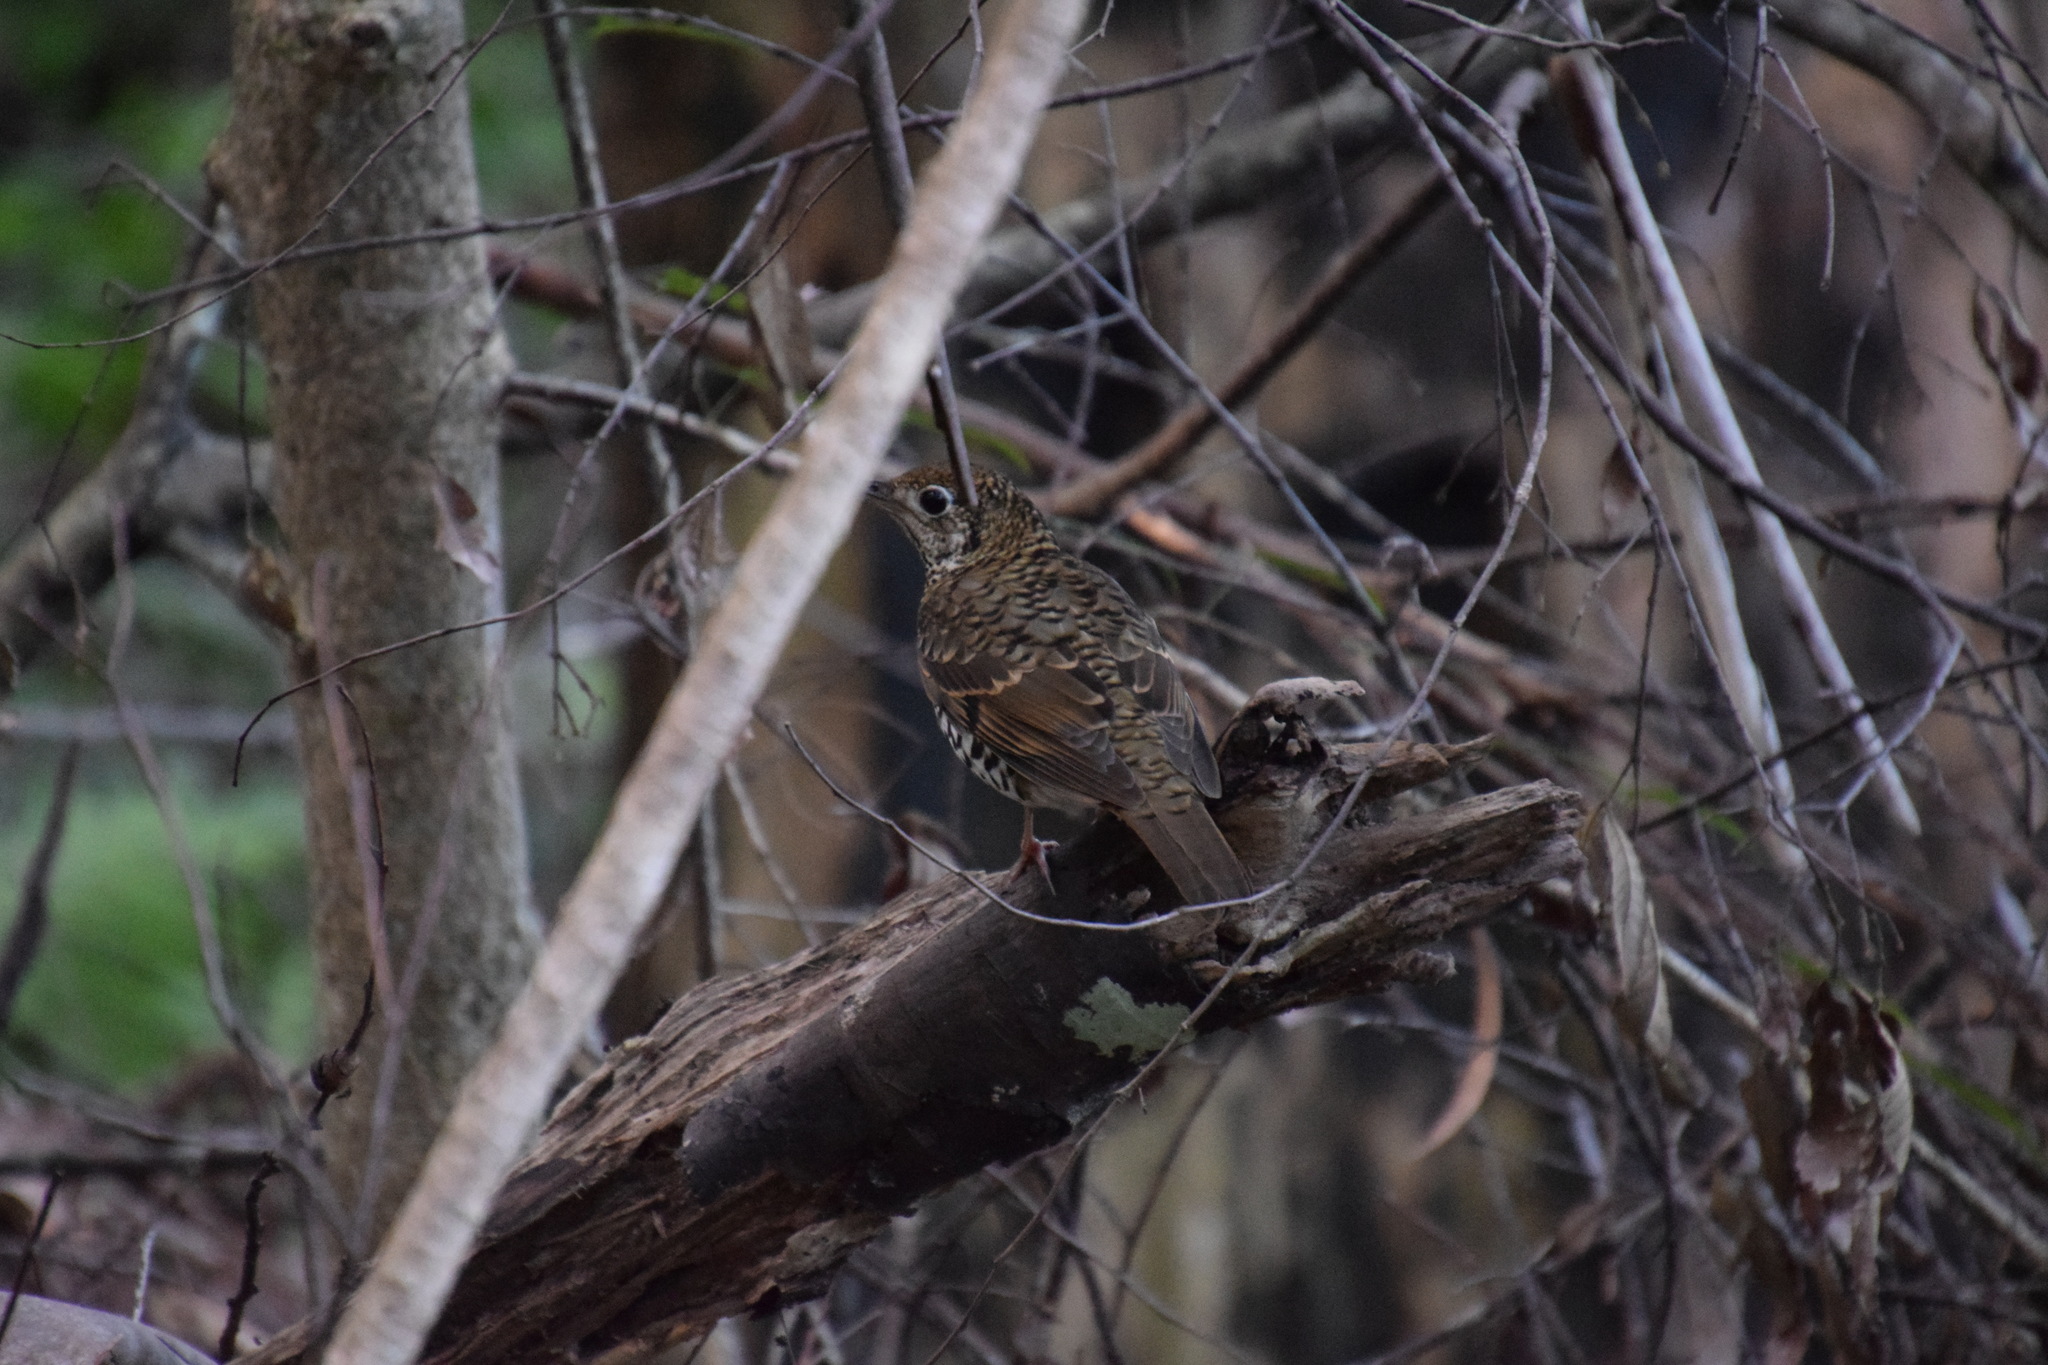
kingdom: Animalia
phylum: Chordata
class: Aves
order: Passeriformes
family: Turdidae
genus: Zoothera
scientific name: Zoothera lunulata
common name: Bassian thrush
